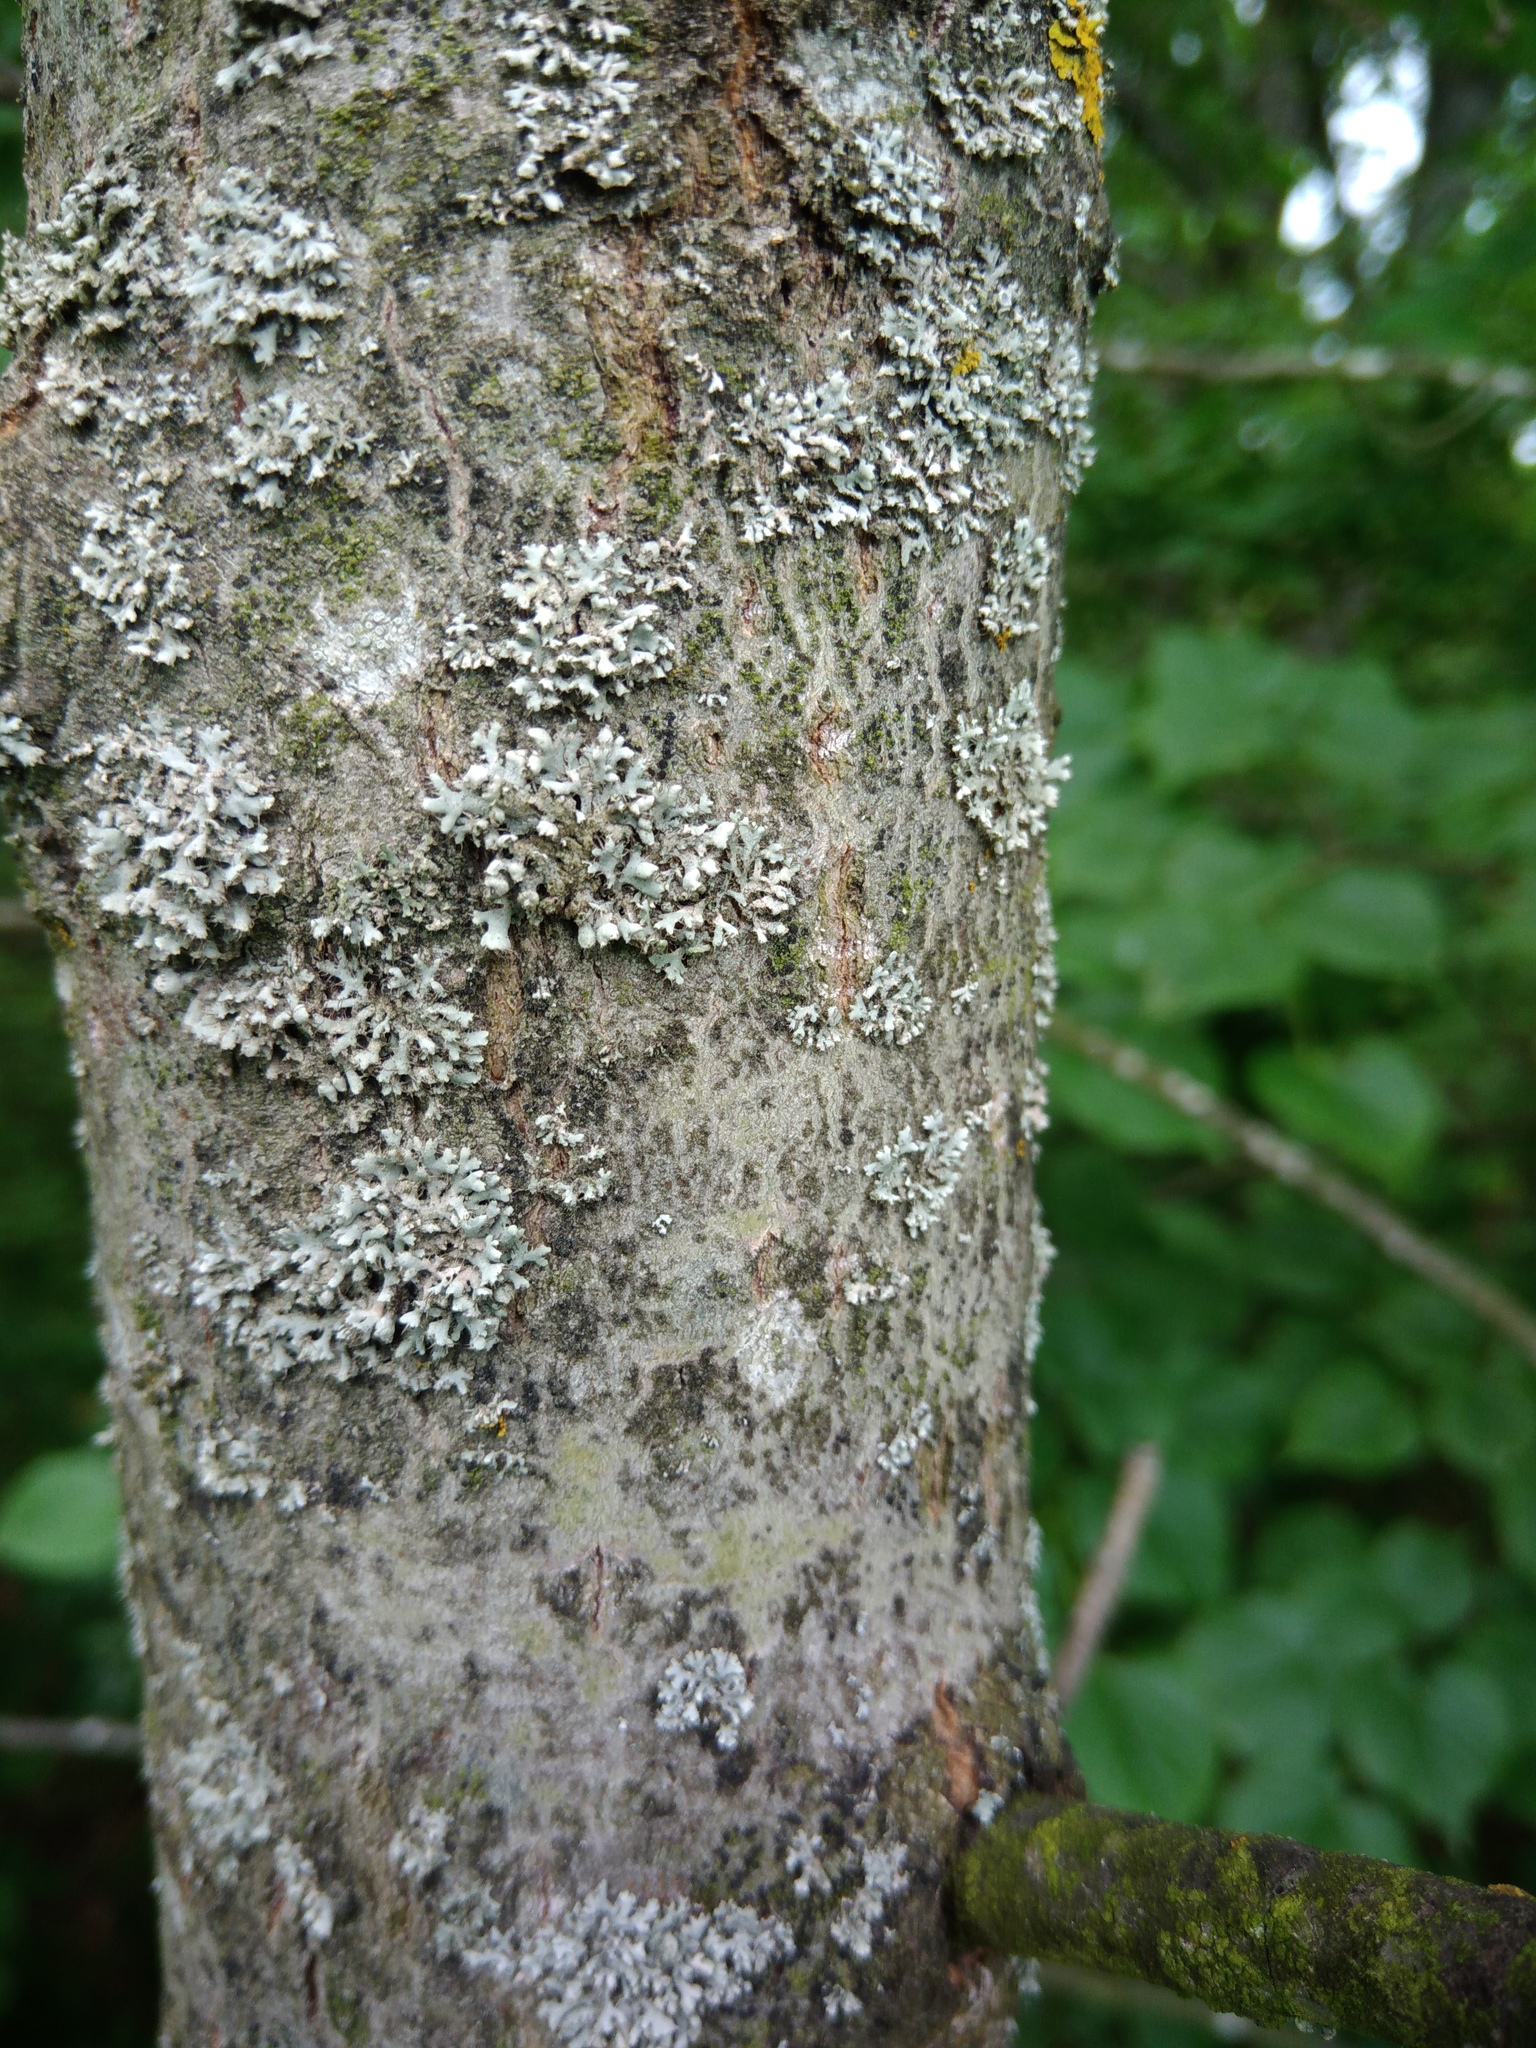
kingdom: Fungi
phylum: Ascomycota
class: Lecanoromycetes
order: Caliciales
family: Physciaceae
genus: Physcia
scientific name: Physcia adscendens
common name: Hooded rosette lichen
